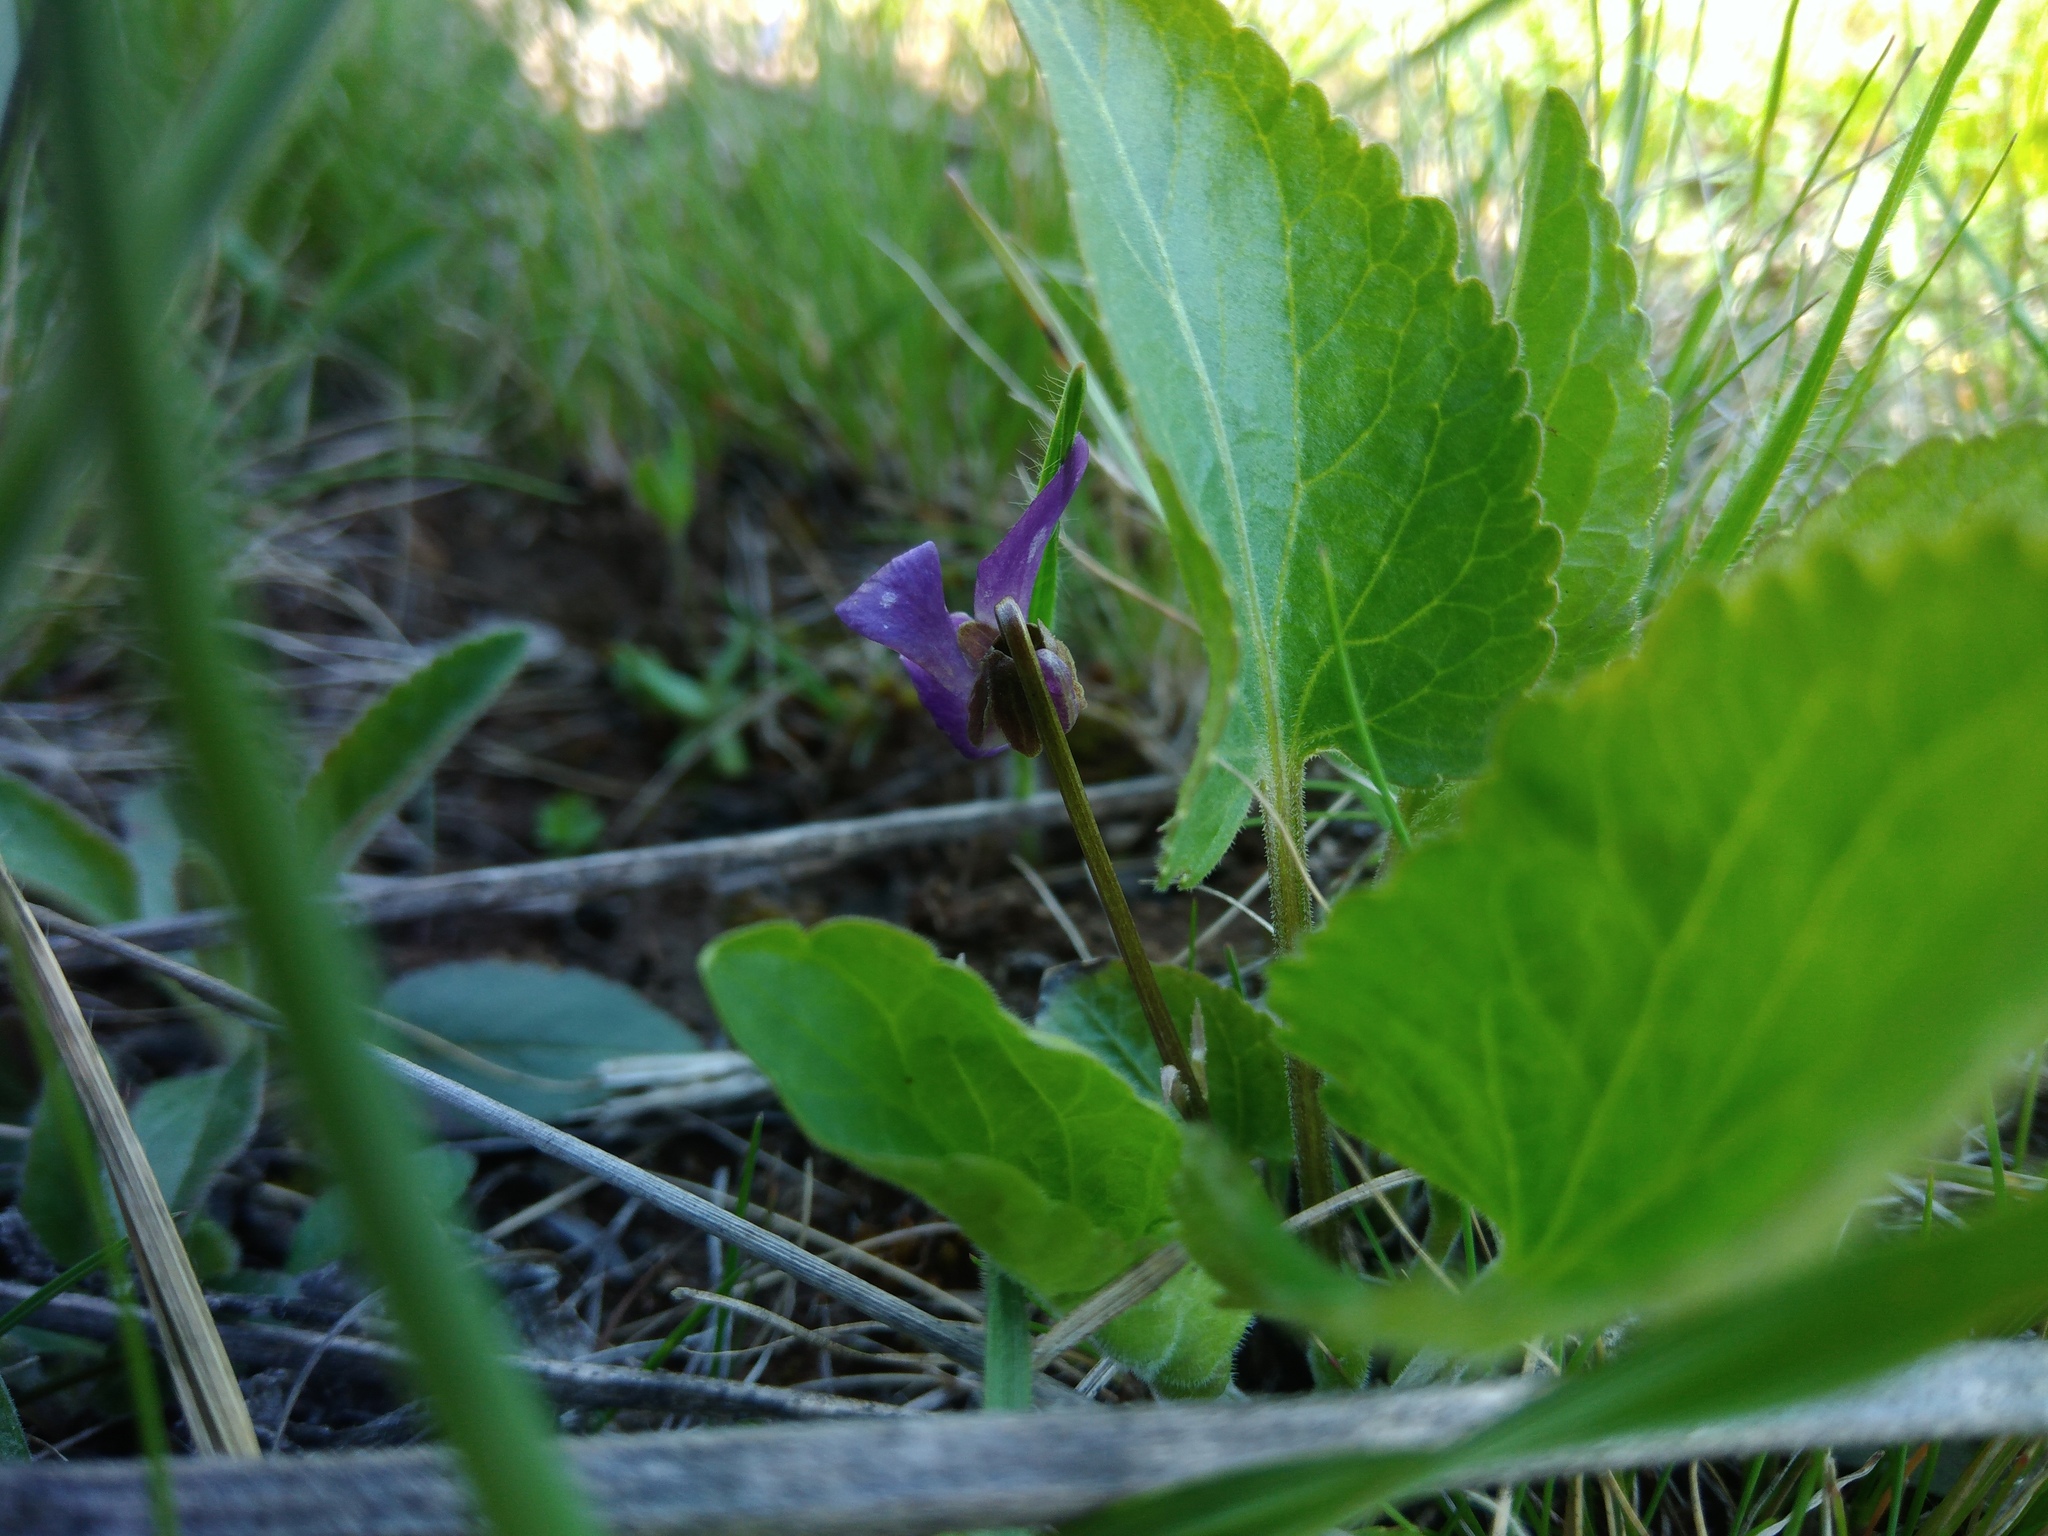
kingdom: Plantae
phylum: Tracheophyta
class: Magnoliopsida
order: Malpighiales
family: Violaceae
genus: Viola
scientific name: Viola ambigua
